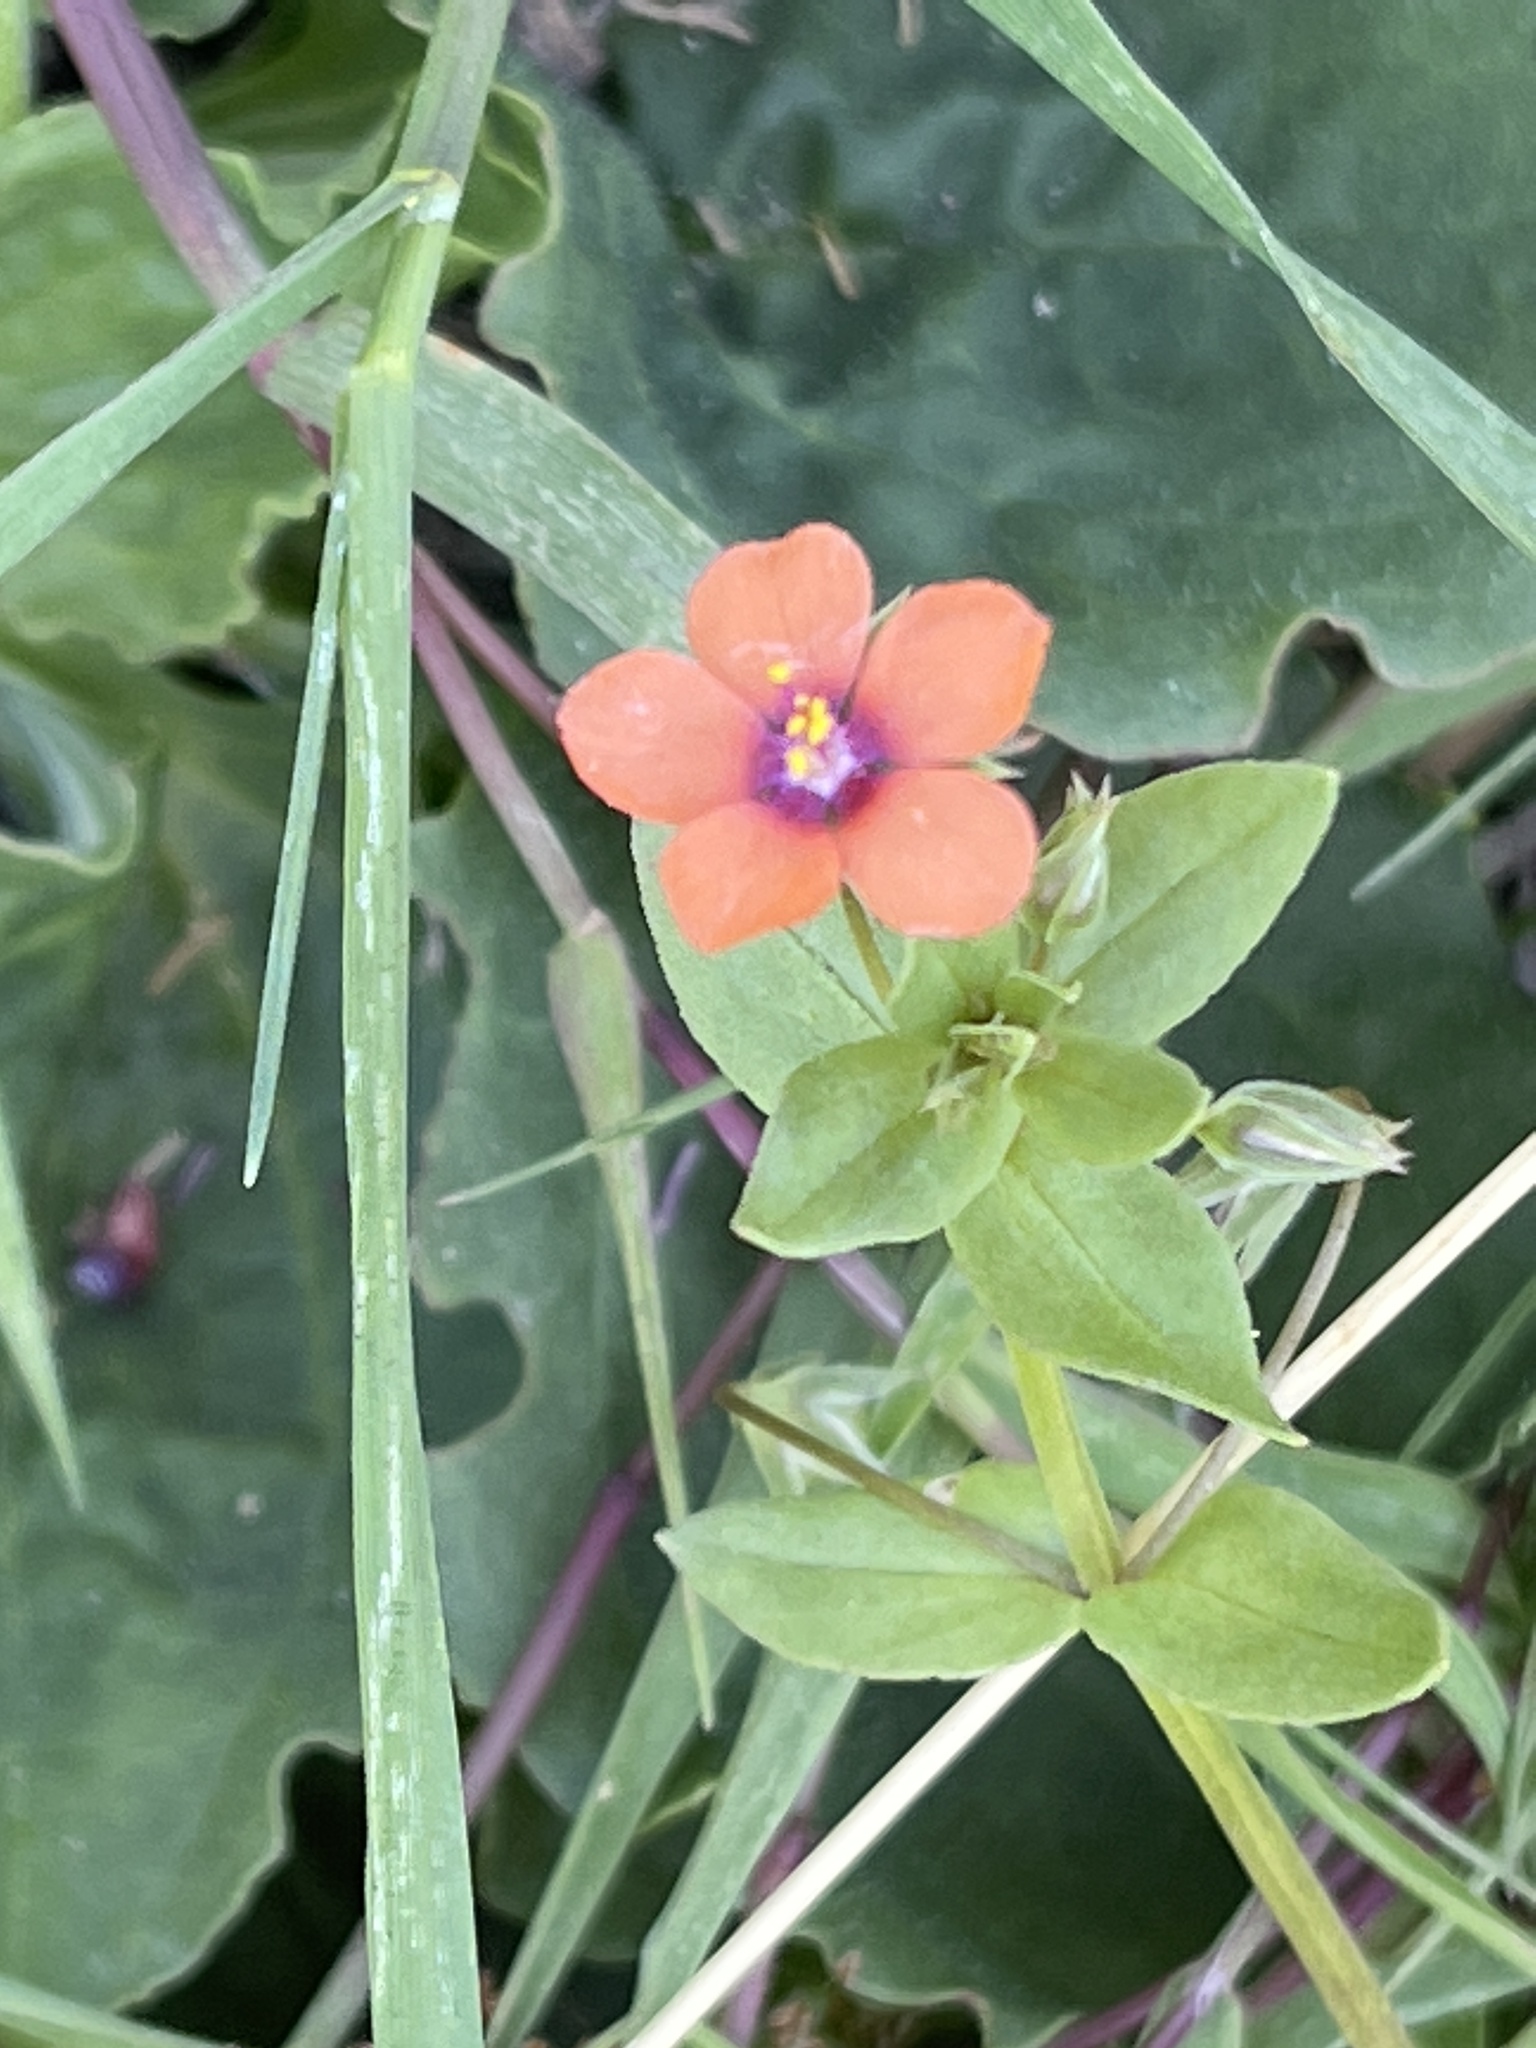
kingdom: Plantae
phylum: Tracheophyta
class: Magnoliopsida
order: Ericales
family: Primulaceae
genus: Lysimachia
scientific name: Lysimachia arvensis
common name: Scarlet pimpernel
